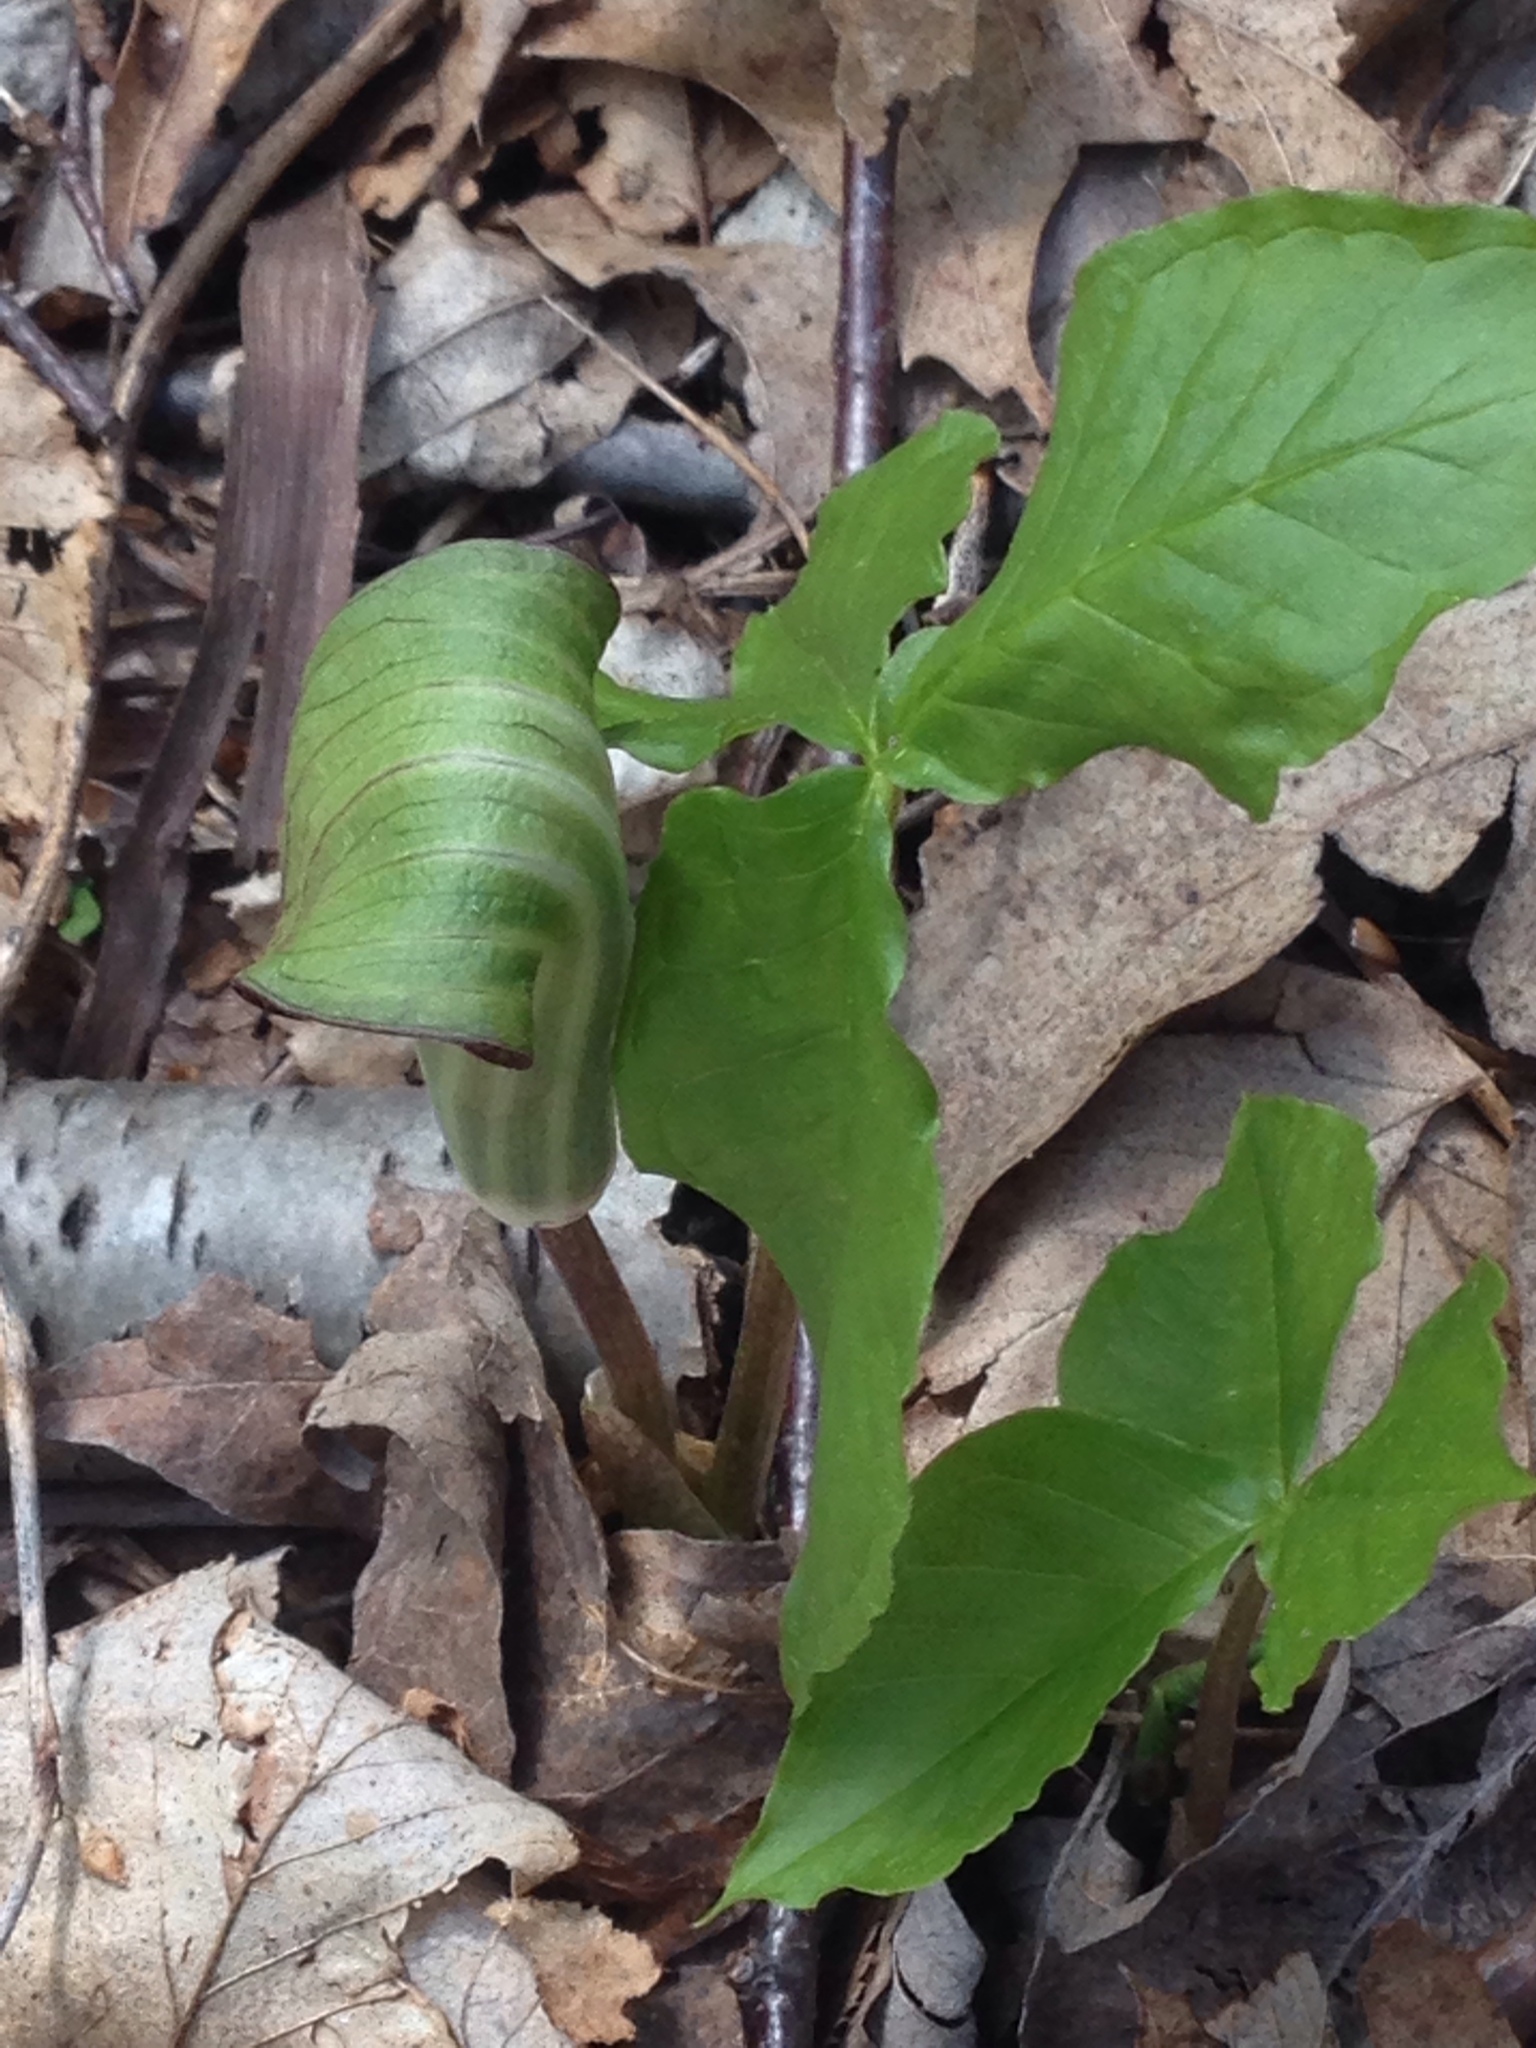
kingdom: Plantae
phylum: Tracheophyta
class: Liliopsida
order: Alismatales
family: Araceae
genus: Arisaema
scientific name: Arisaema triphyllum
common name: Jack-in-the-pulpit
